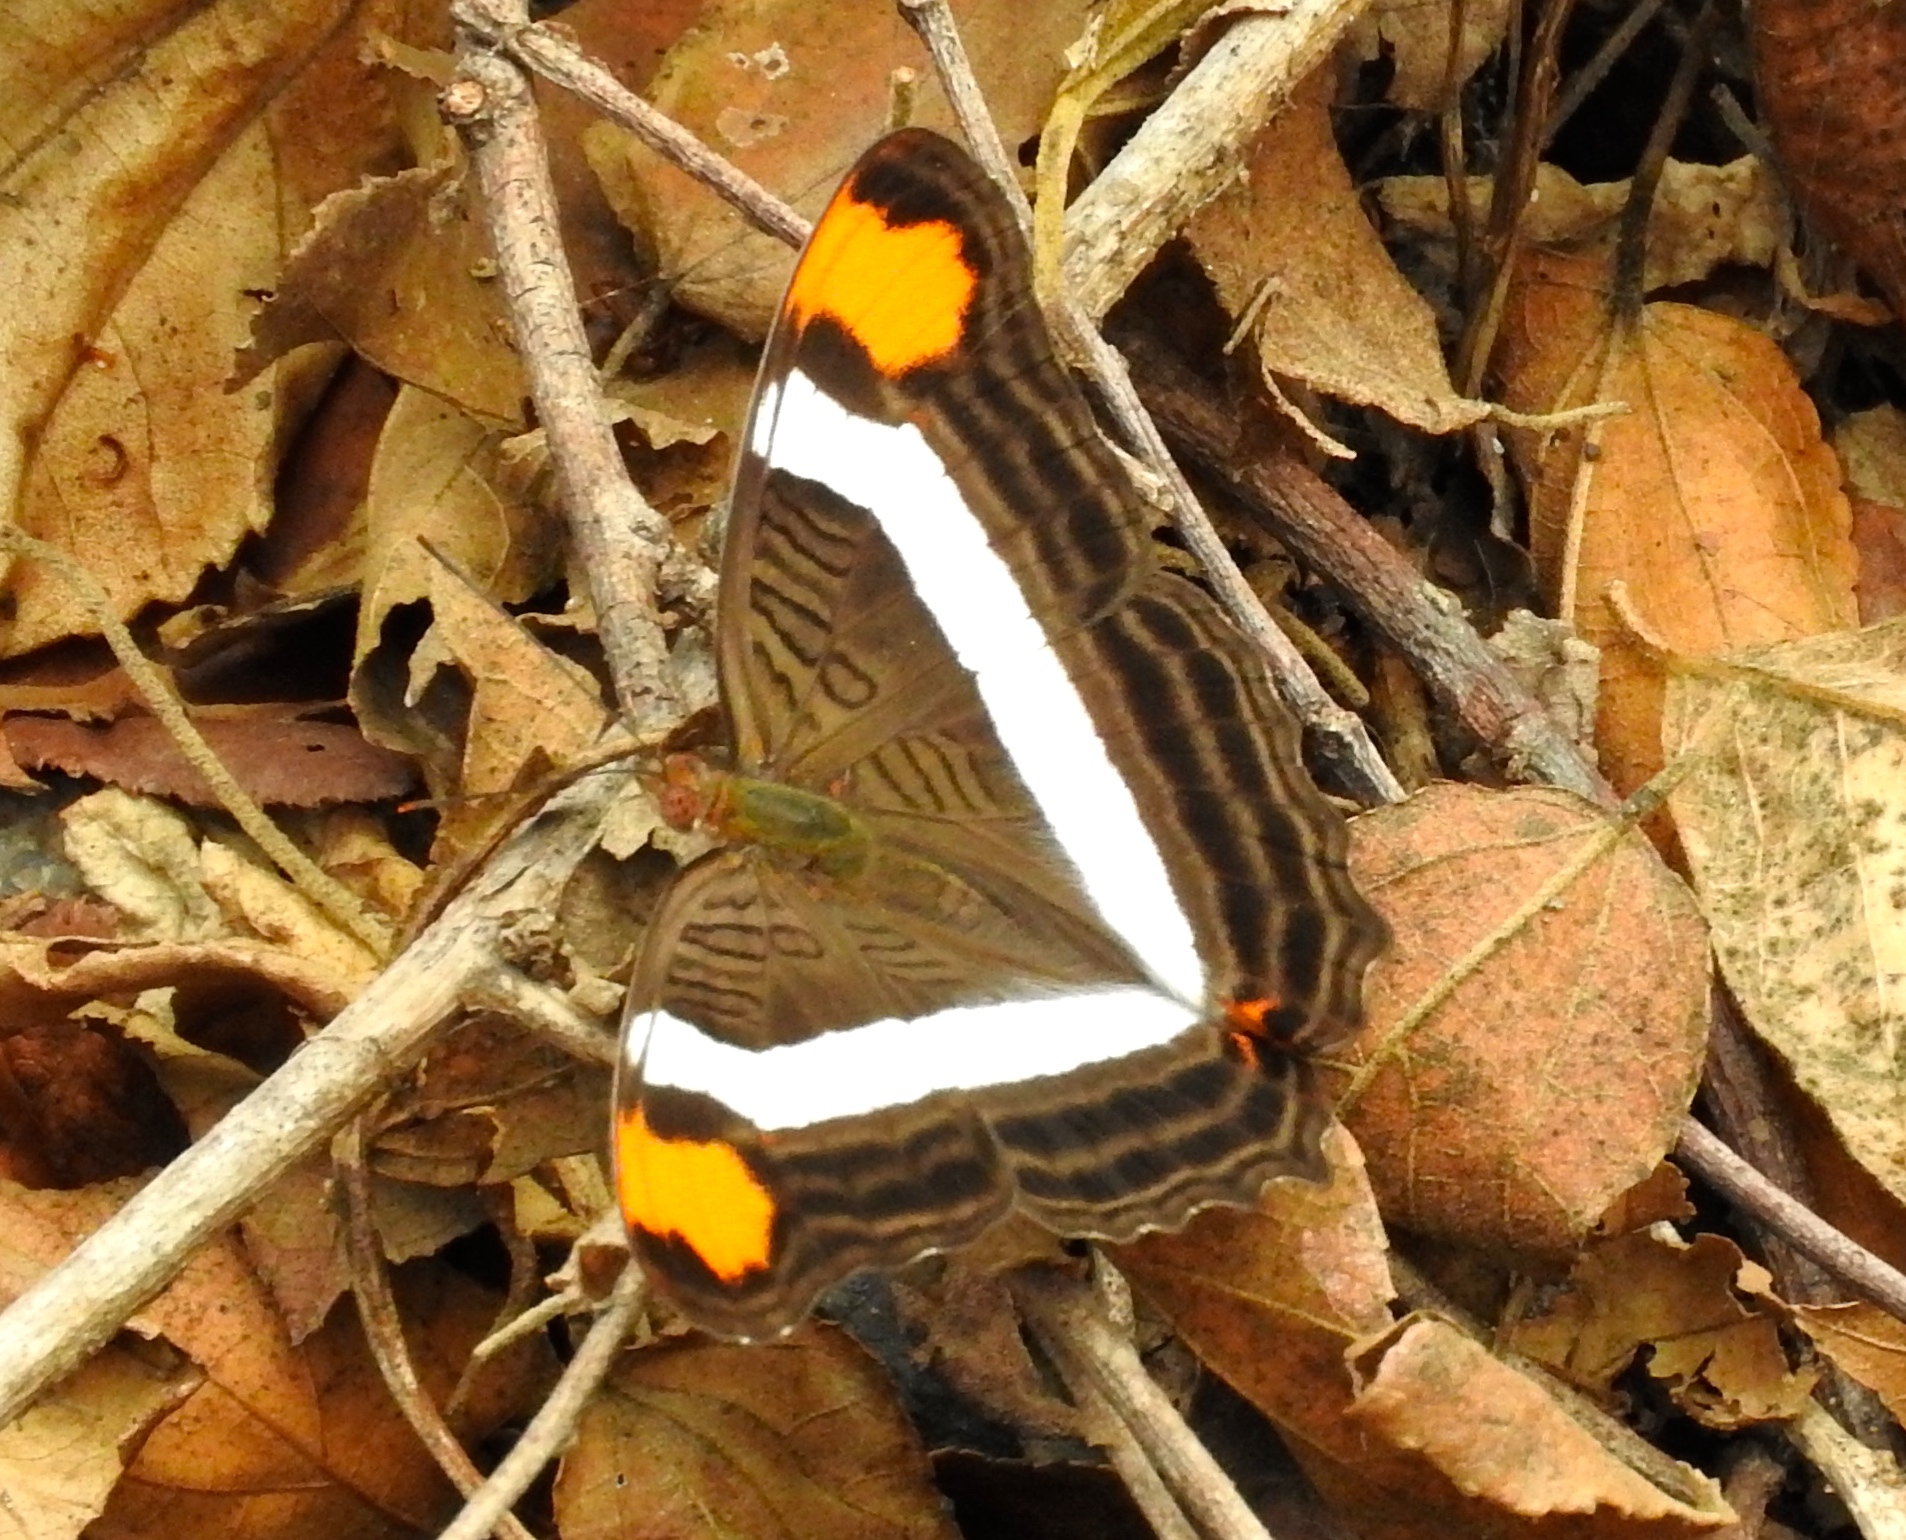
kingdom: Animalia
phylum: Arthropoda
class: Insecta
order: Lepidoptera
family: Nymphalidae
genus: Limenitis
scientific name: Limenitis fessonia
